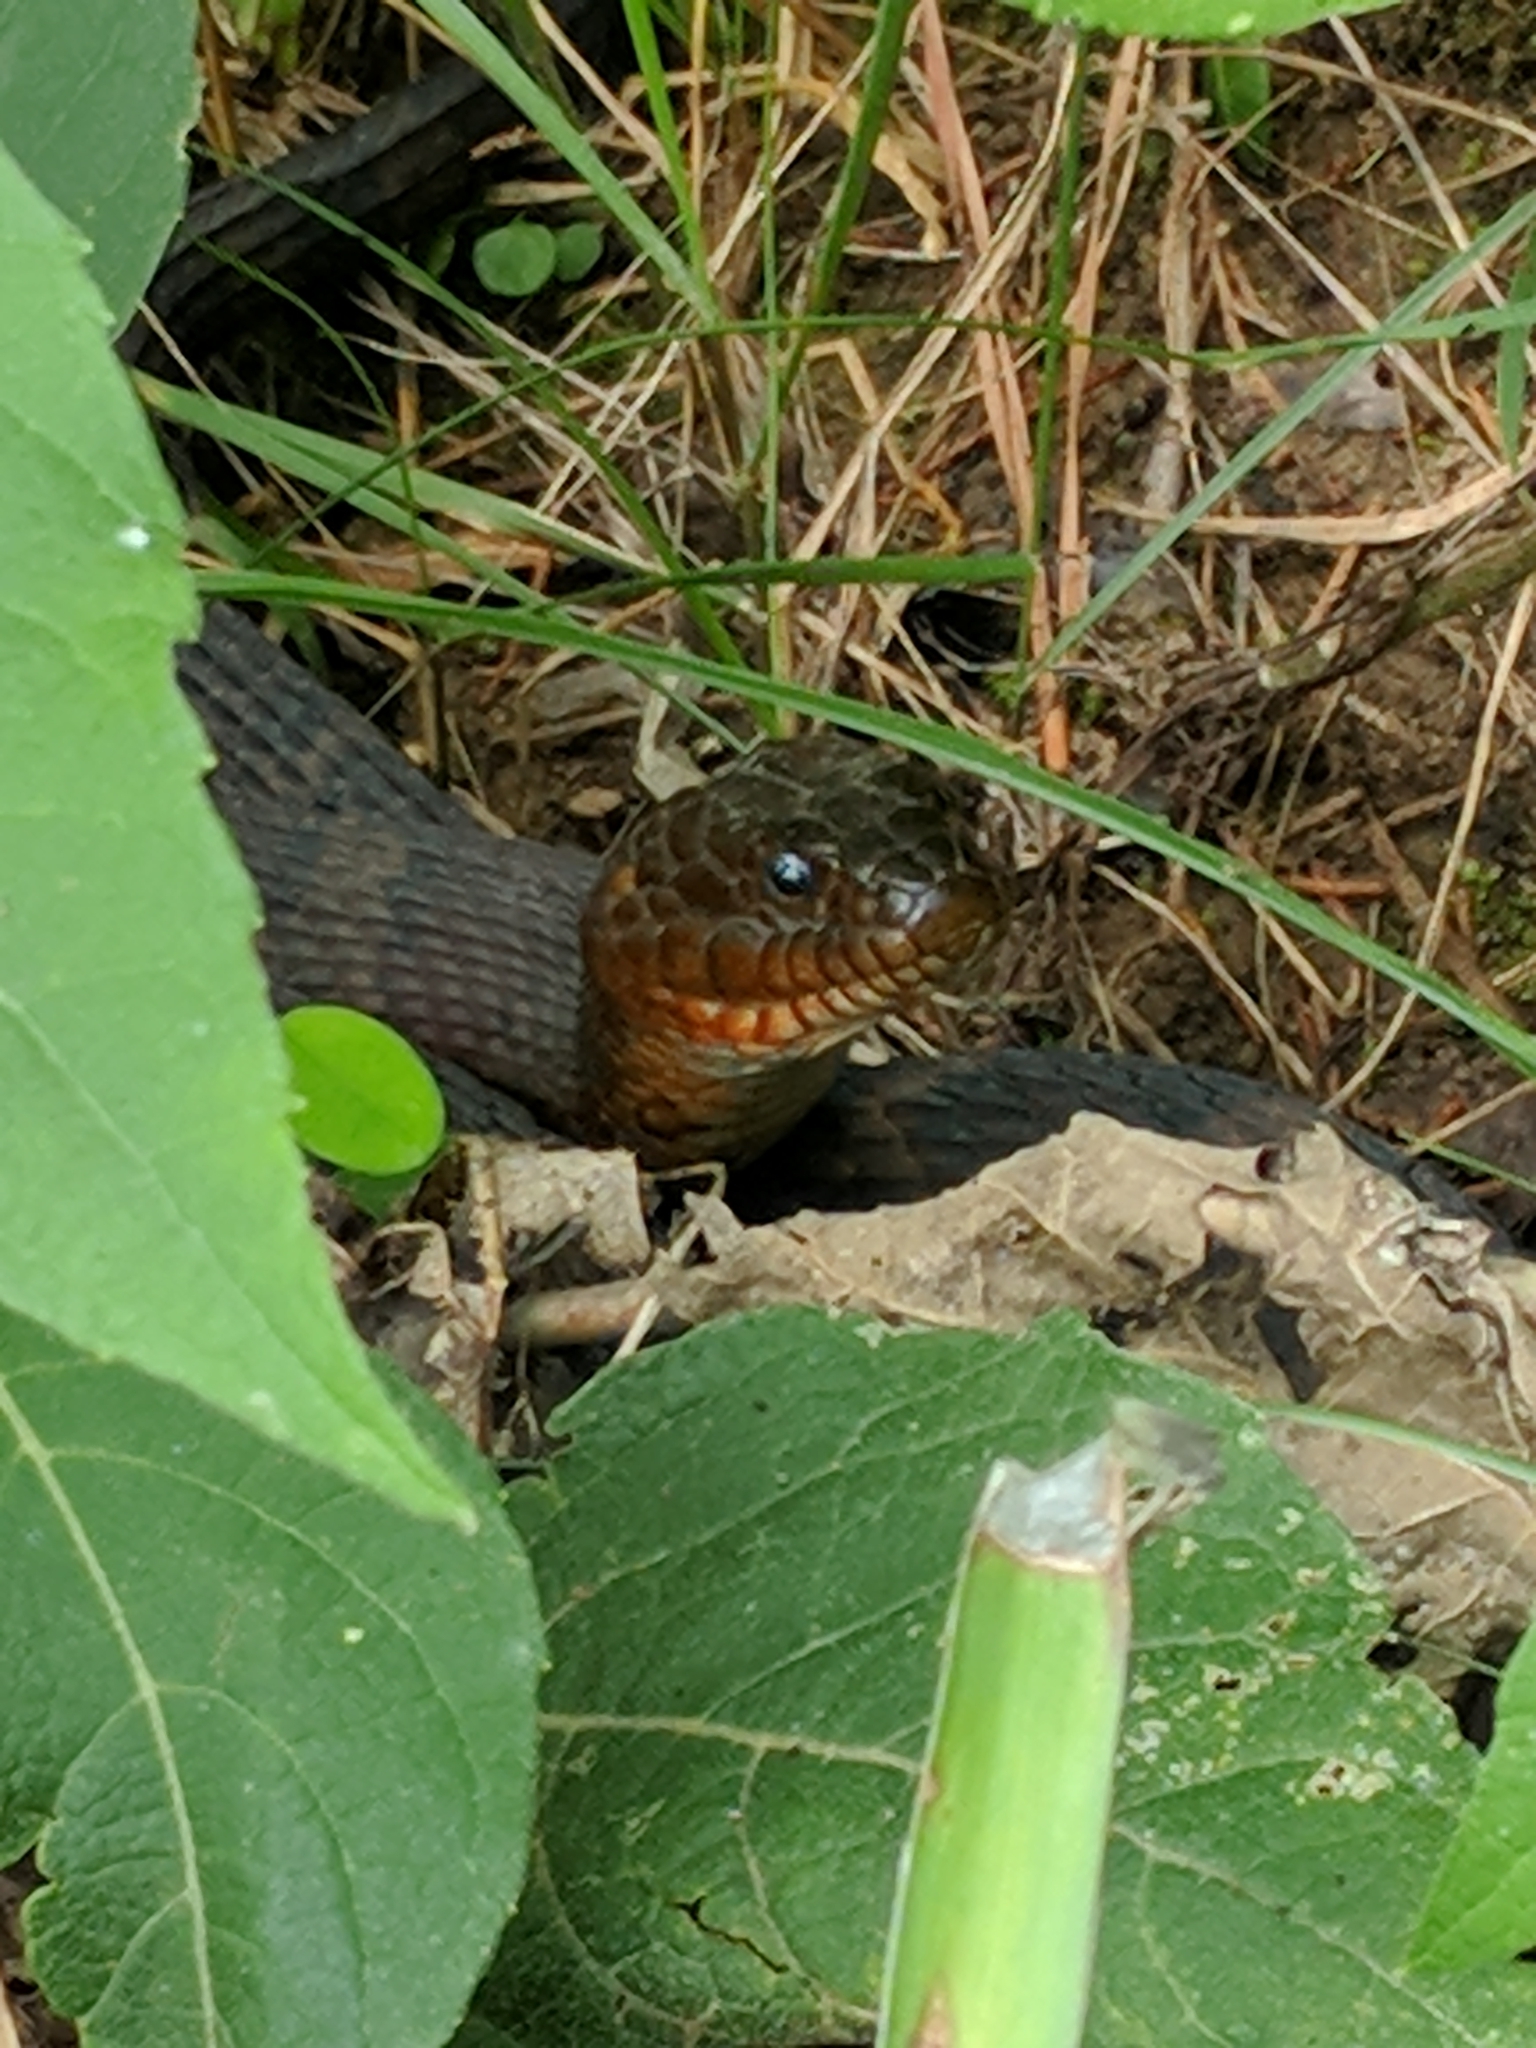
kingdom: Animalia
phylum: Chordata
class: Squamata
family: Colubridae
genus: Nerodia
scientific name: Nerodia sipedon
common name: Northern water snake
